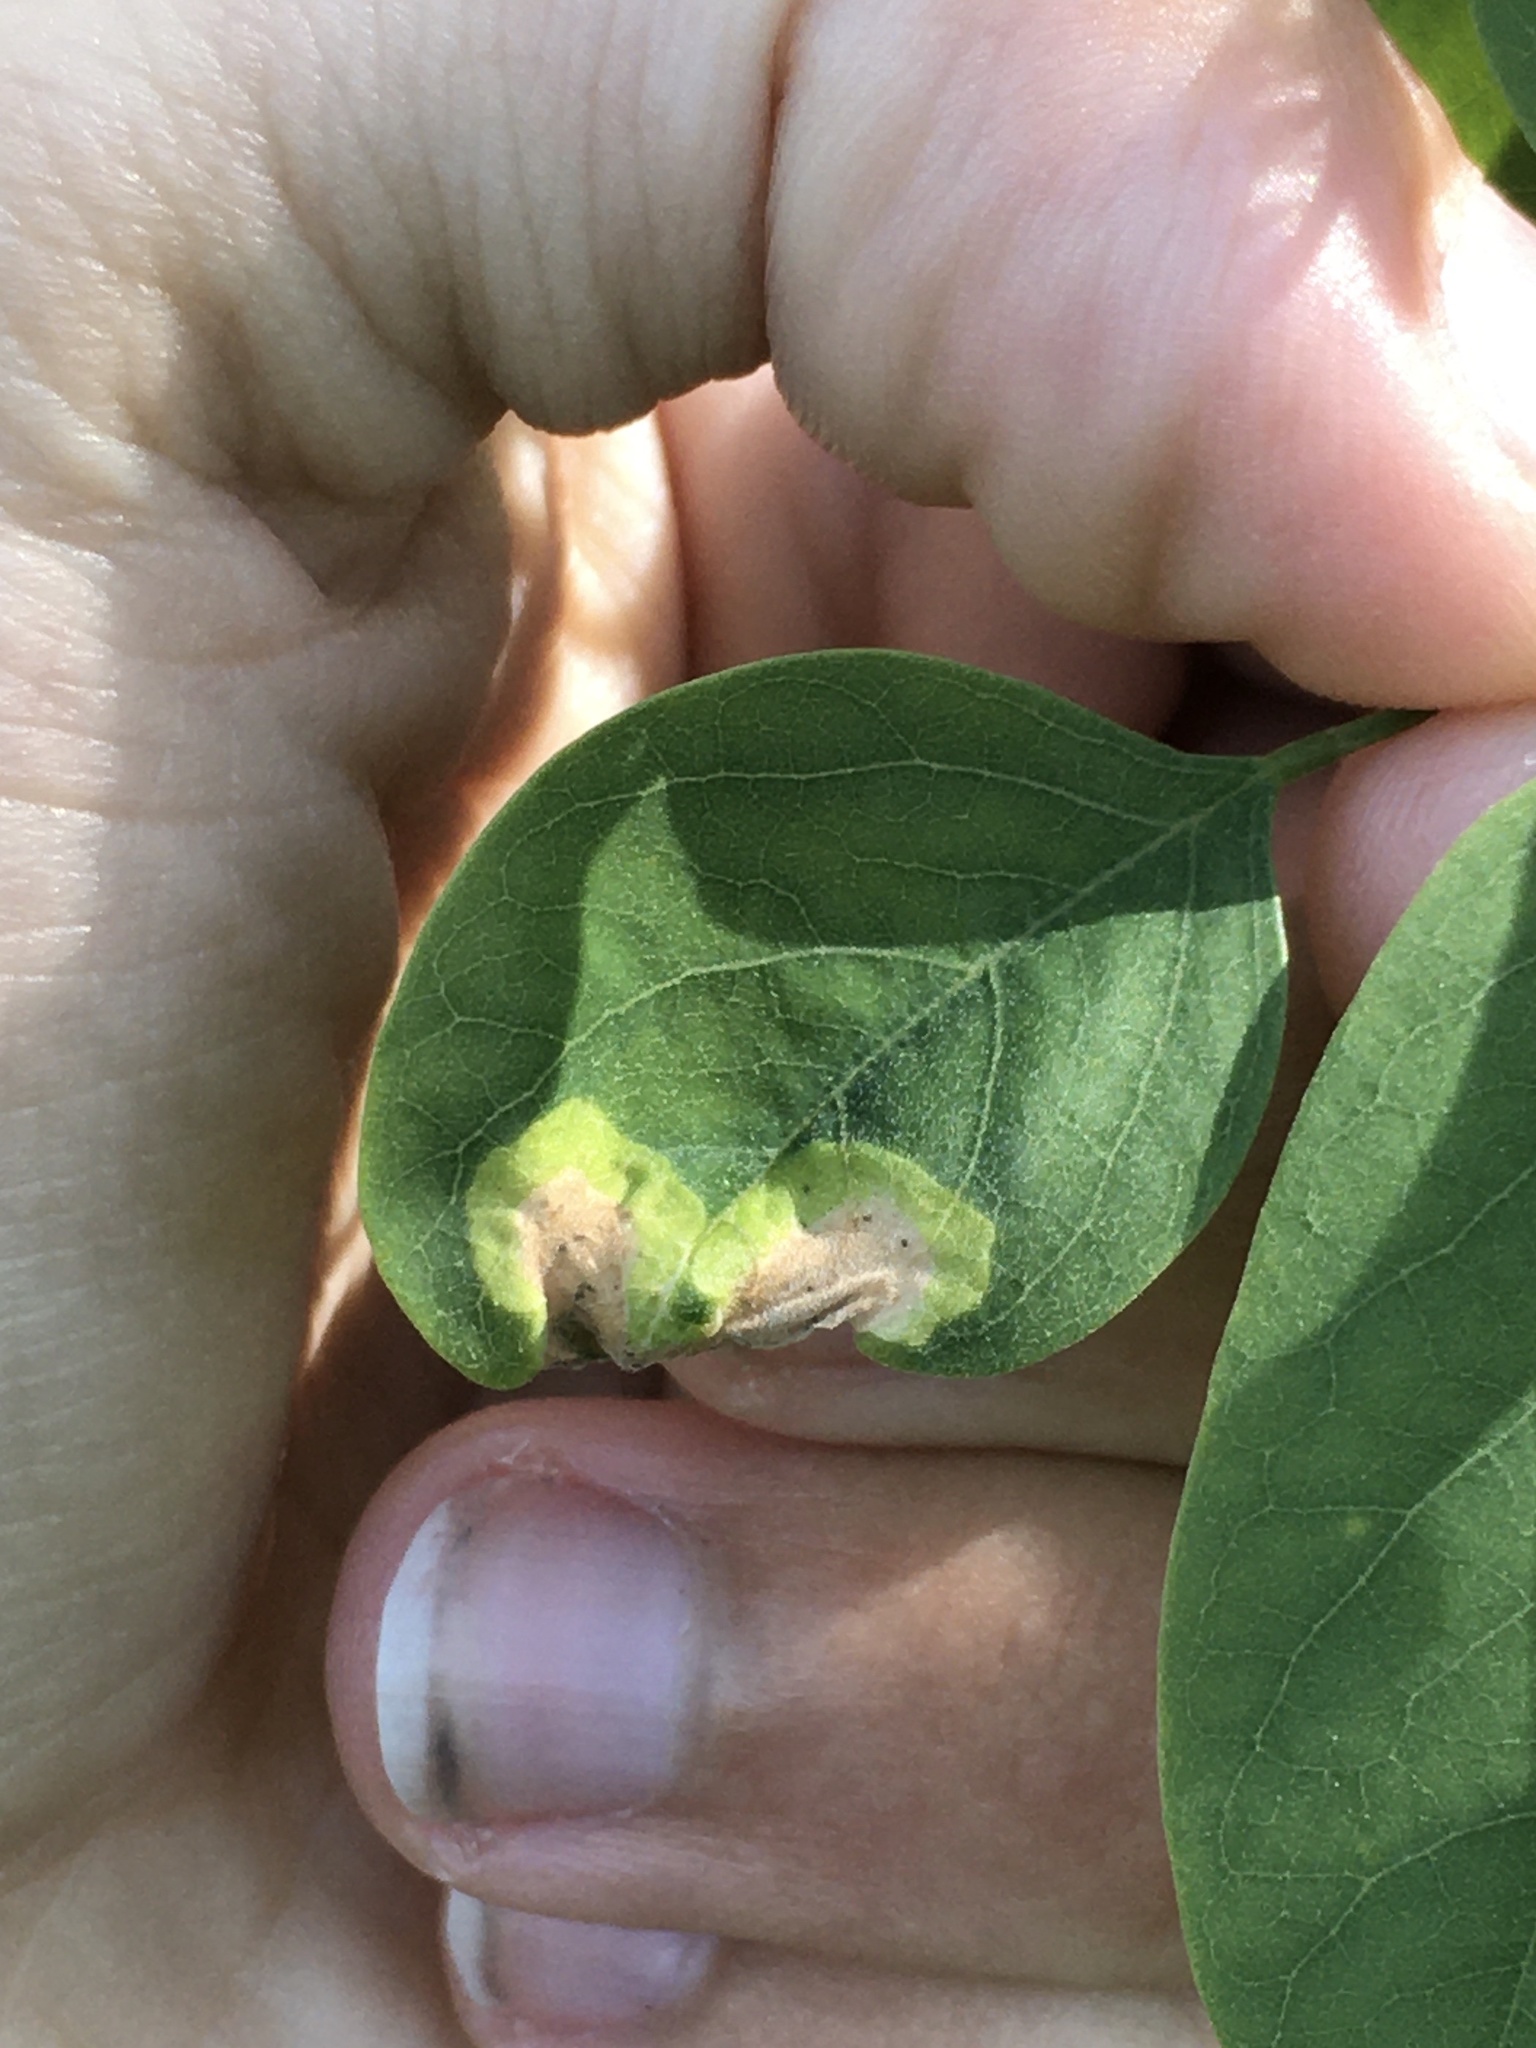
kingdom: Animalia
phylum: Arthropoda
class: Insecta
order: Diptera
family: Agromyzidae
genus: Agromyza
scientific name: Agromyza soka
